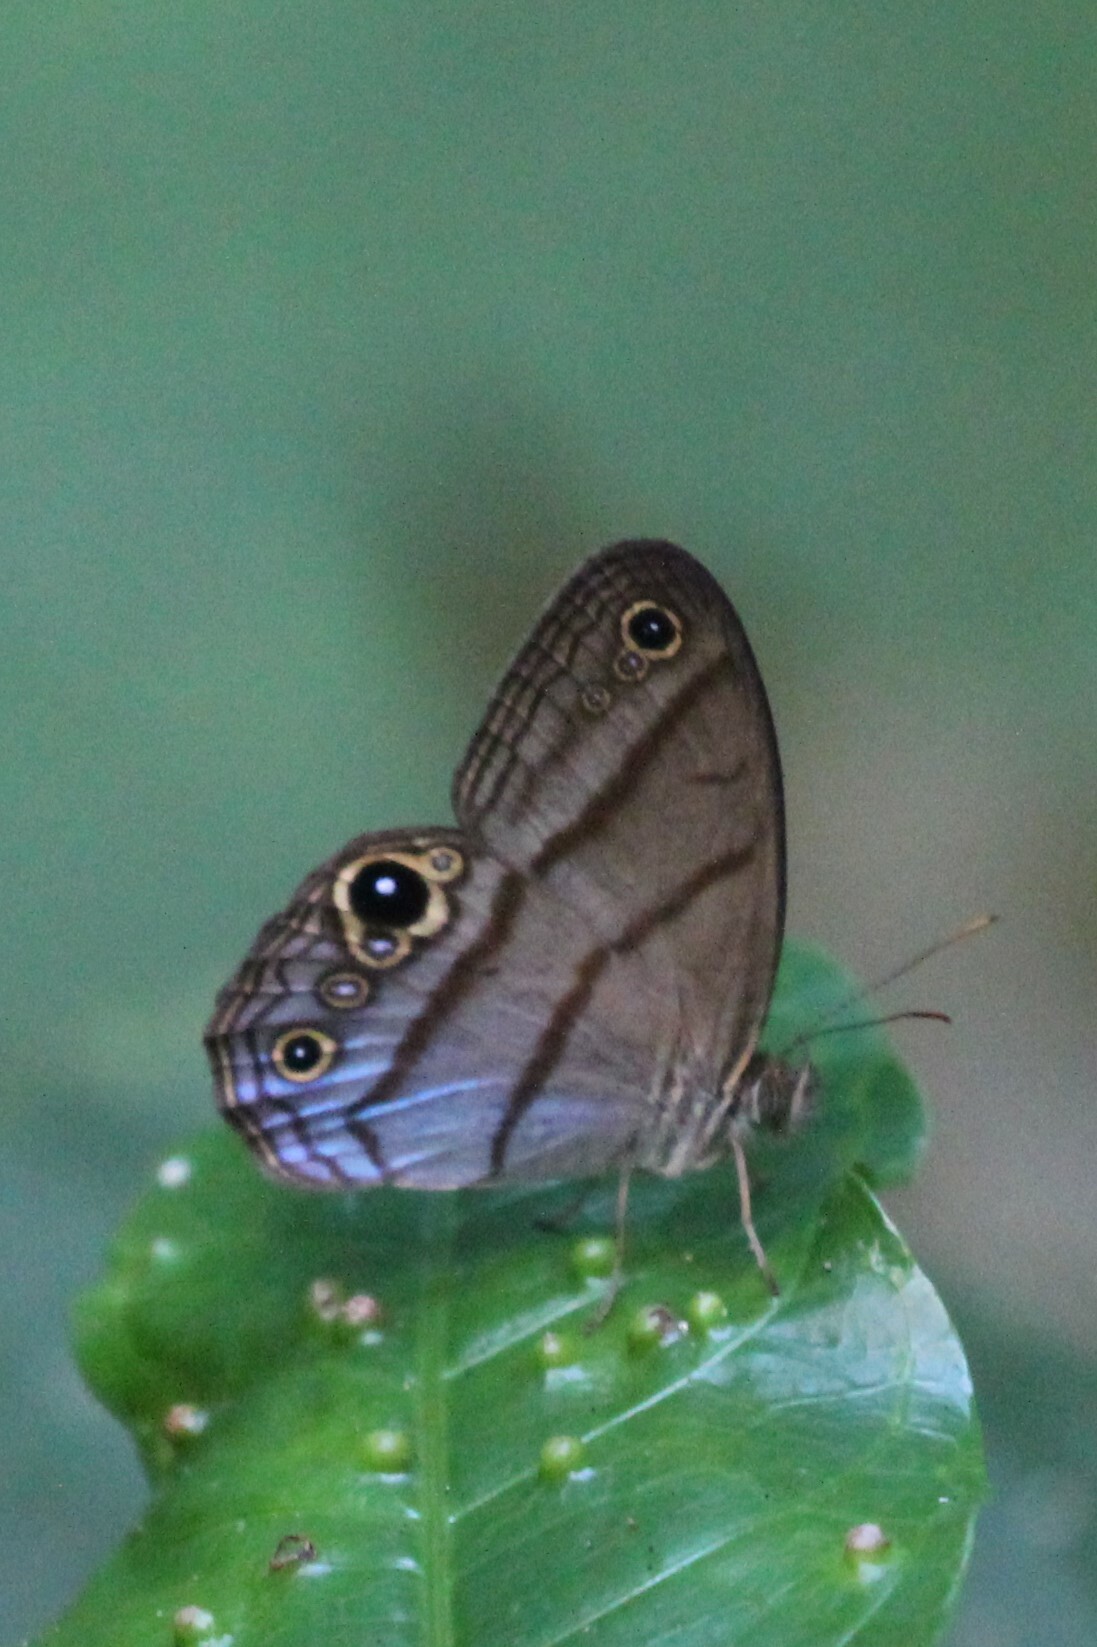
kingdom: Animalia
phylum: Arthropoda
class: Insecta
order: Lepidoptera
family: Nymphalidae
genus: Amiga
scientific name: Amiga arnaca
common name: Blue-topped satyr
